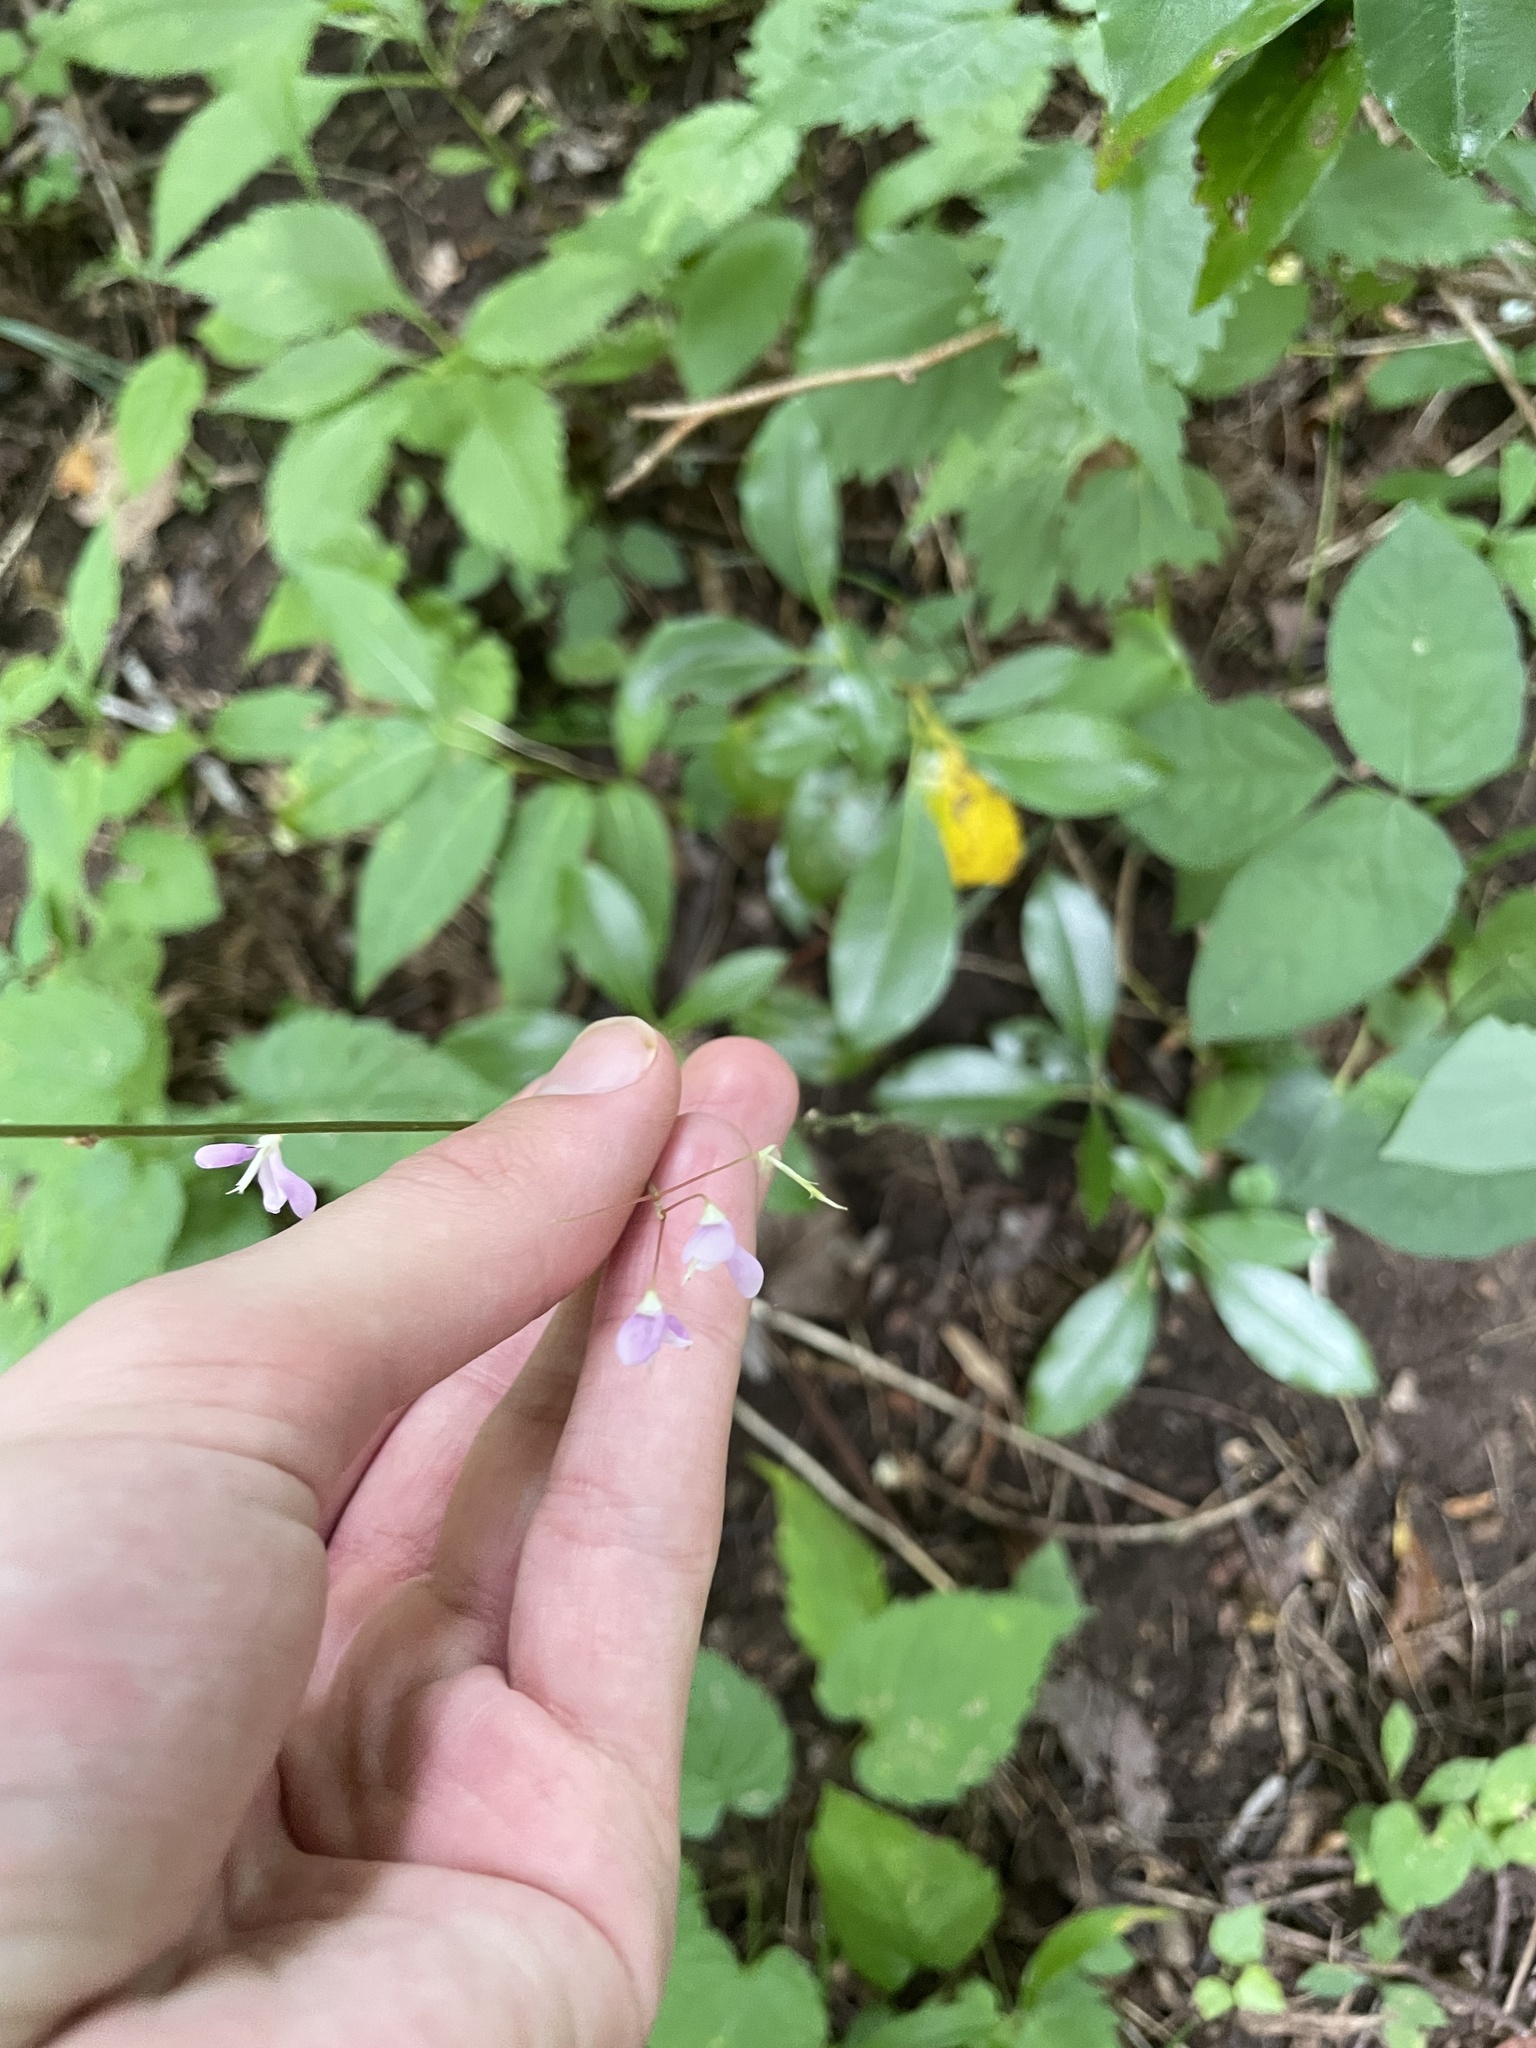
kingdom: Plantae
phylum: Tracheophyta
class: Magnoliopsida
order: Fabales
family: Fabaceae
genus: Hylodesmum
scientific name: Hylodesmum nudiflorum
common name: Bare-stemmed tick-trefoil
